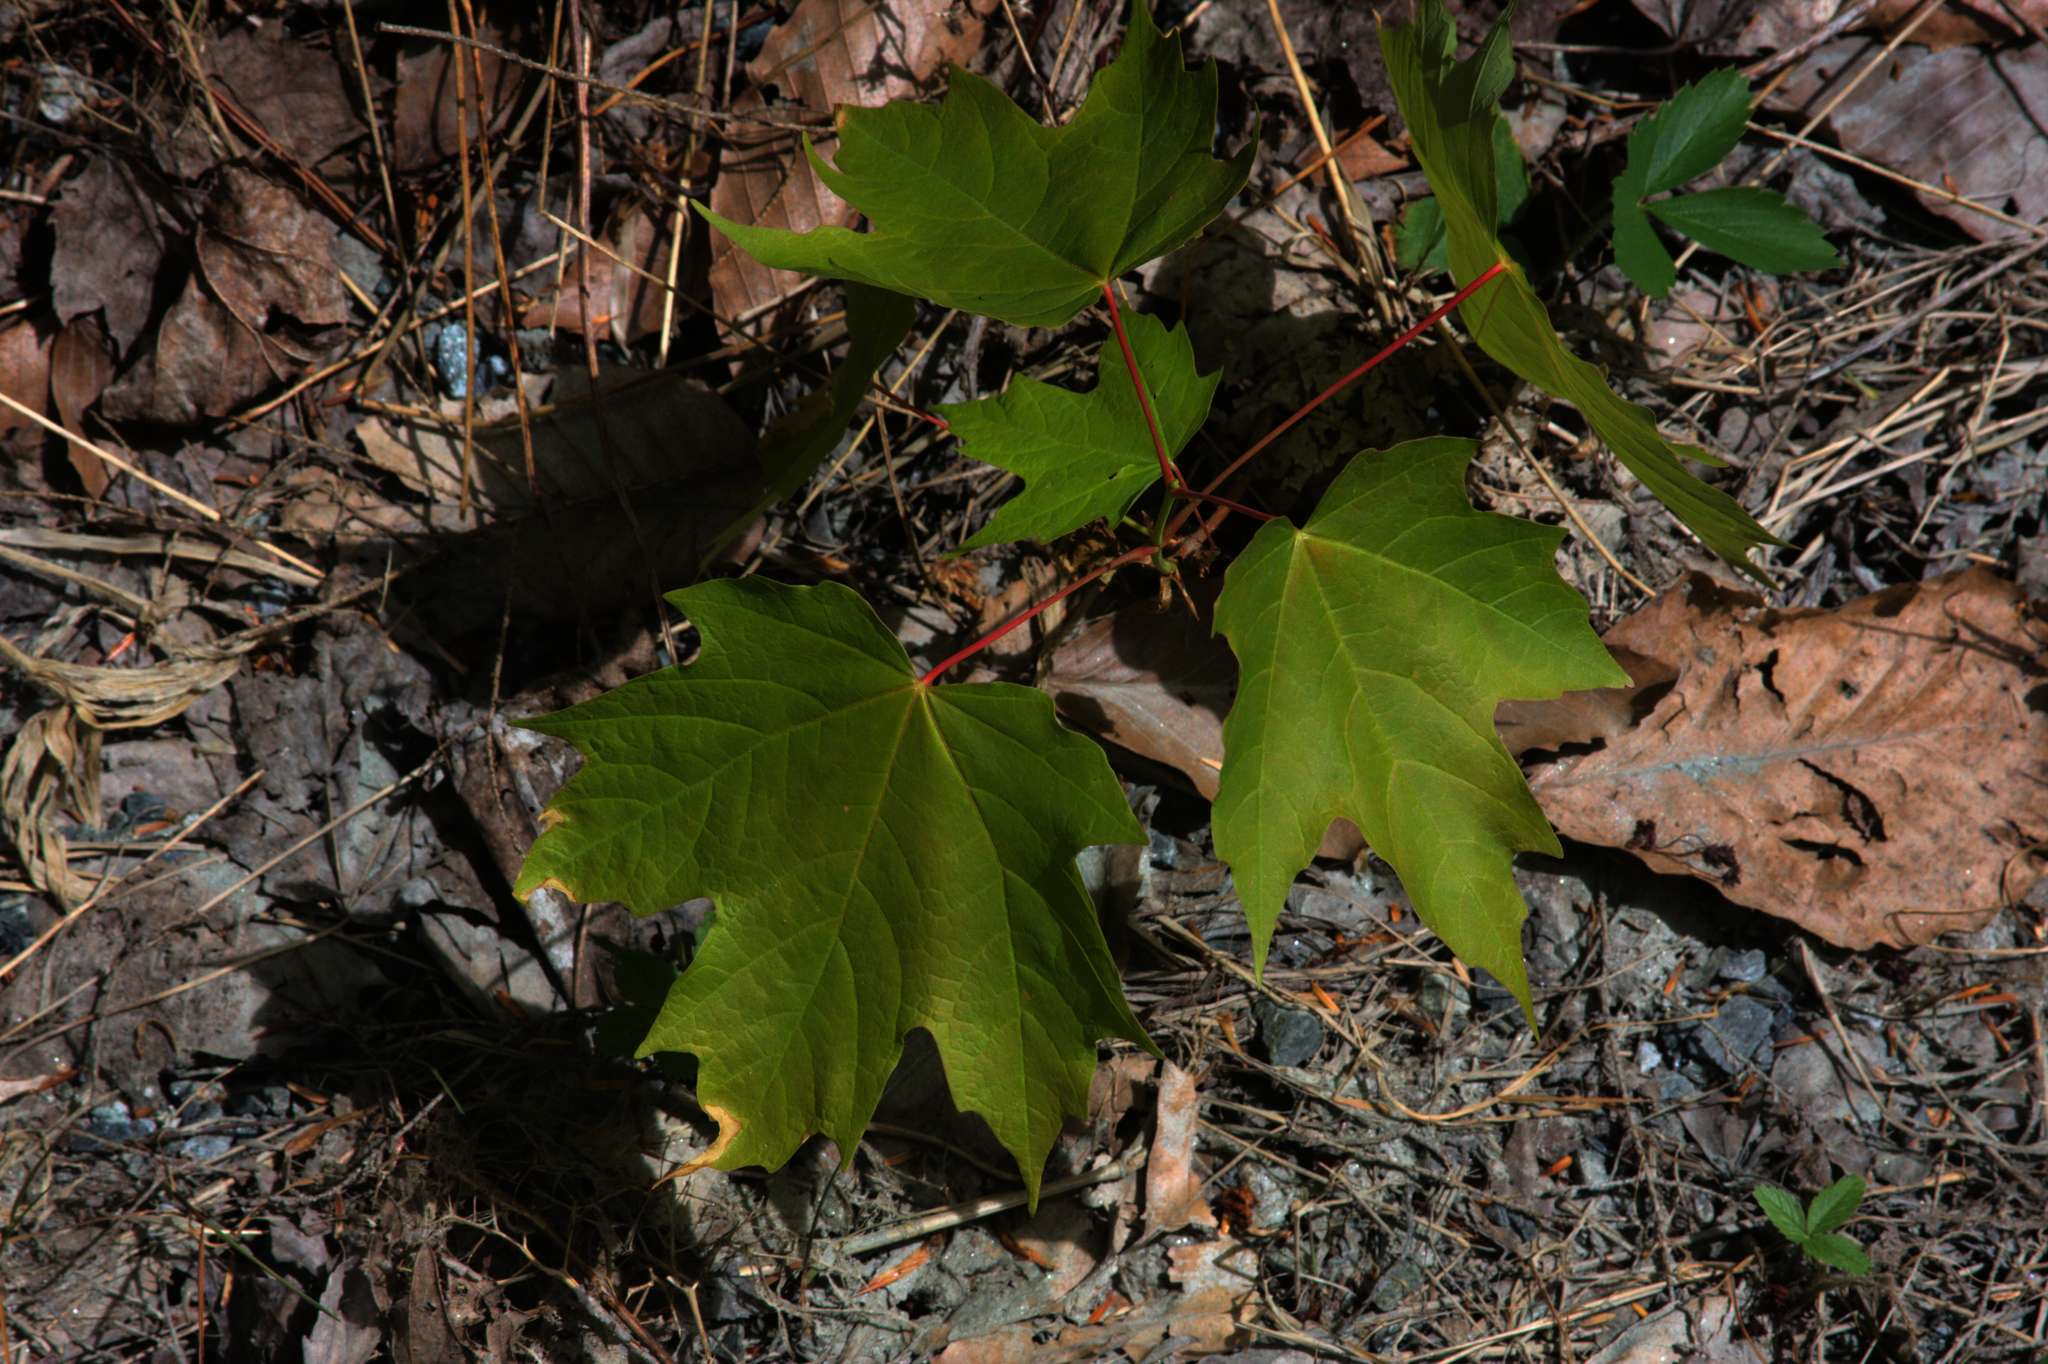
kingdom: Plantae
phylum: Tracheophyta
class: Magnoliopsida
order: Sapindales
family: Sapindaceae
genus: Acer
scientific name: Acer saccharum
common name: Sugar maple
